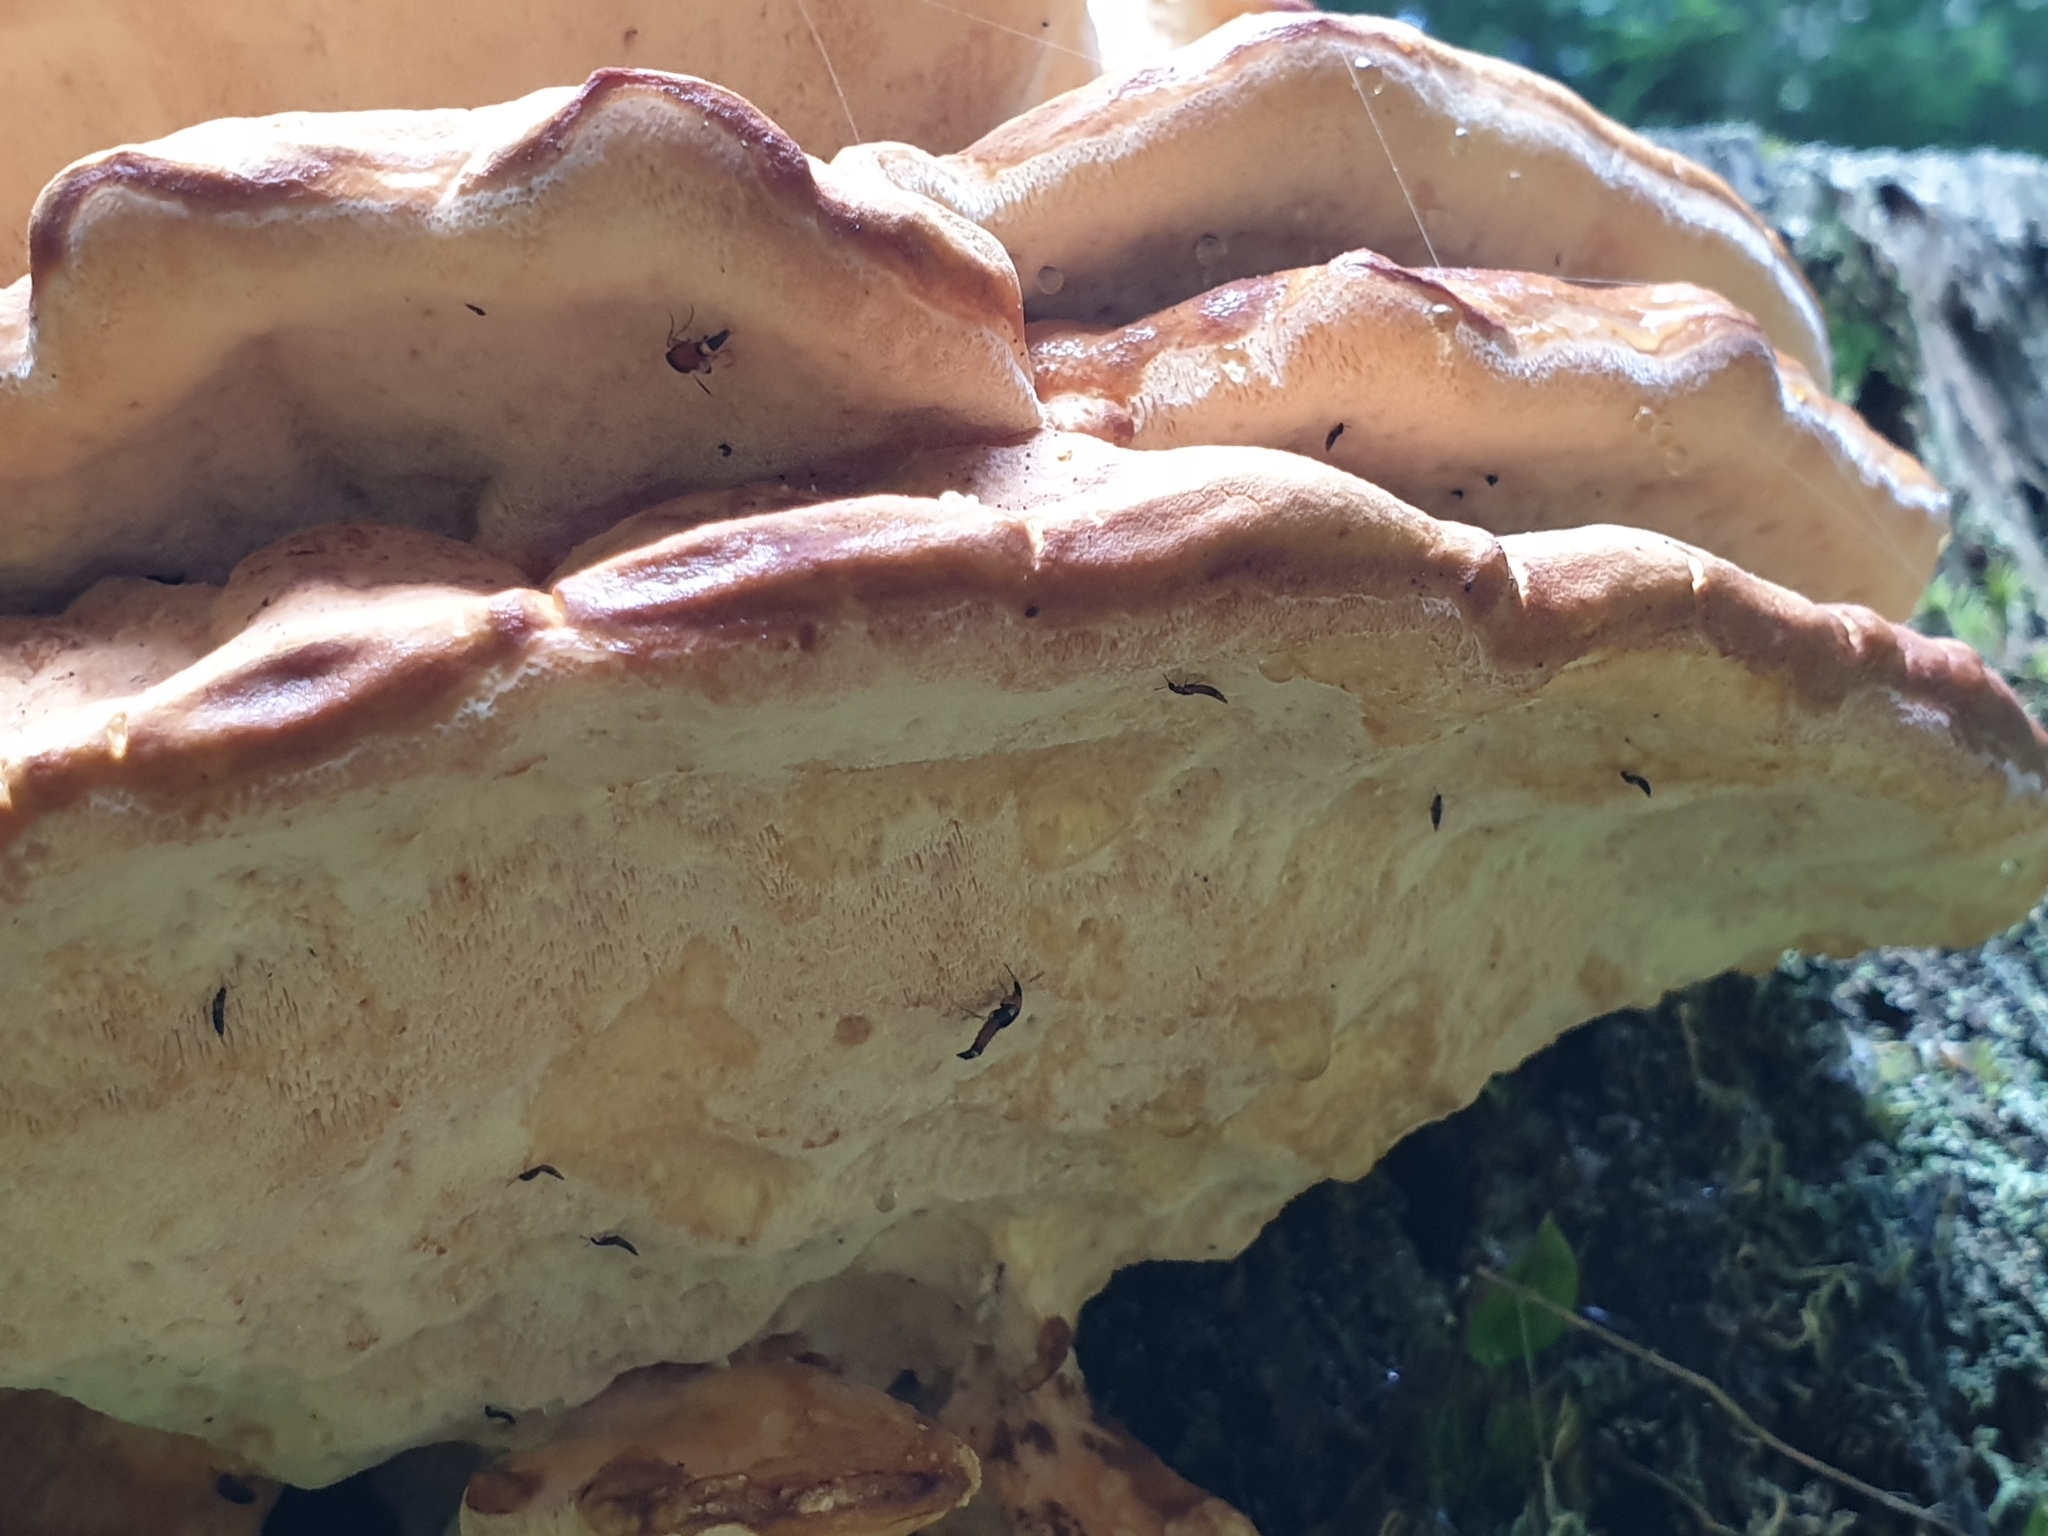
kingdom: Fungi
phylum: Basidiomycota
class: Agaricomycetes
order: Polyporales
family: Meripilaceae
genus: Meripilus
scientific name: Meripilus giganteus
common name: Giant polypore
